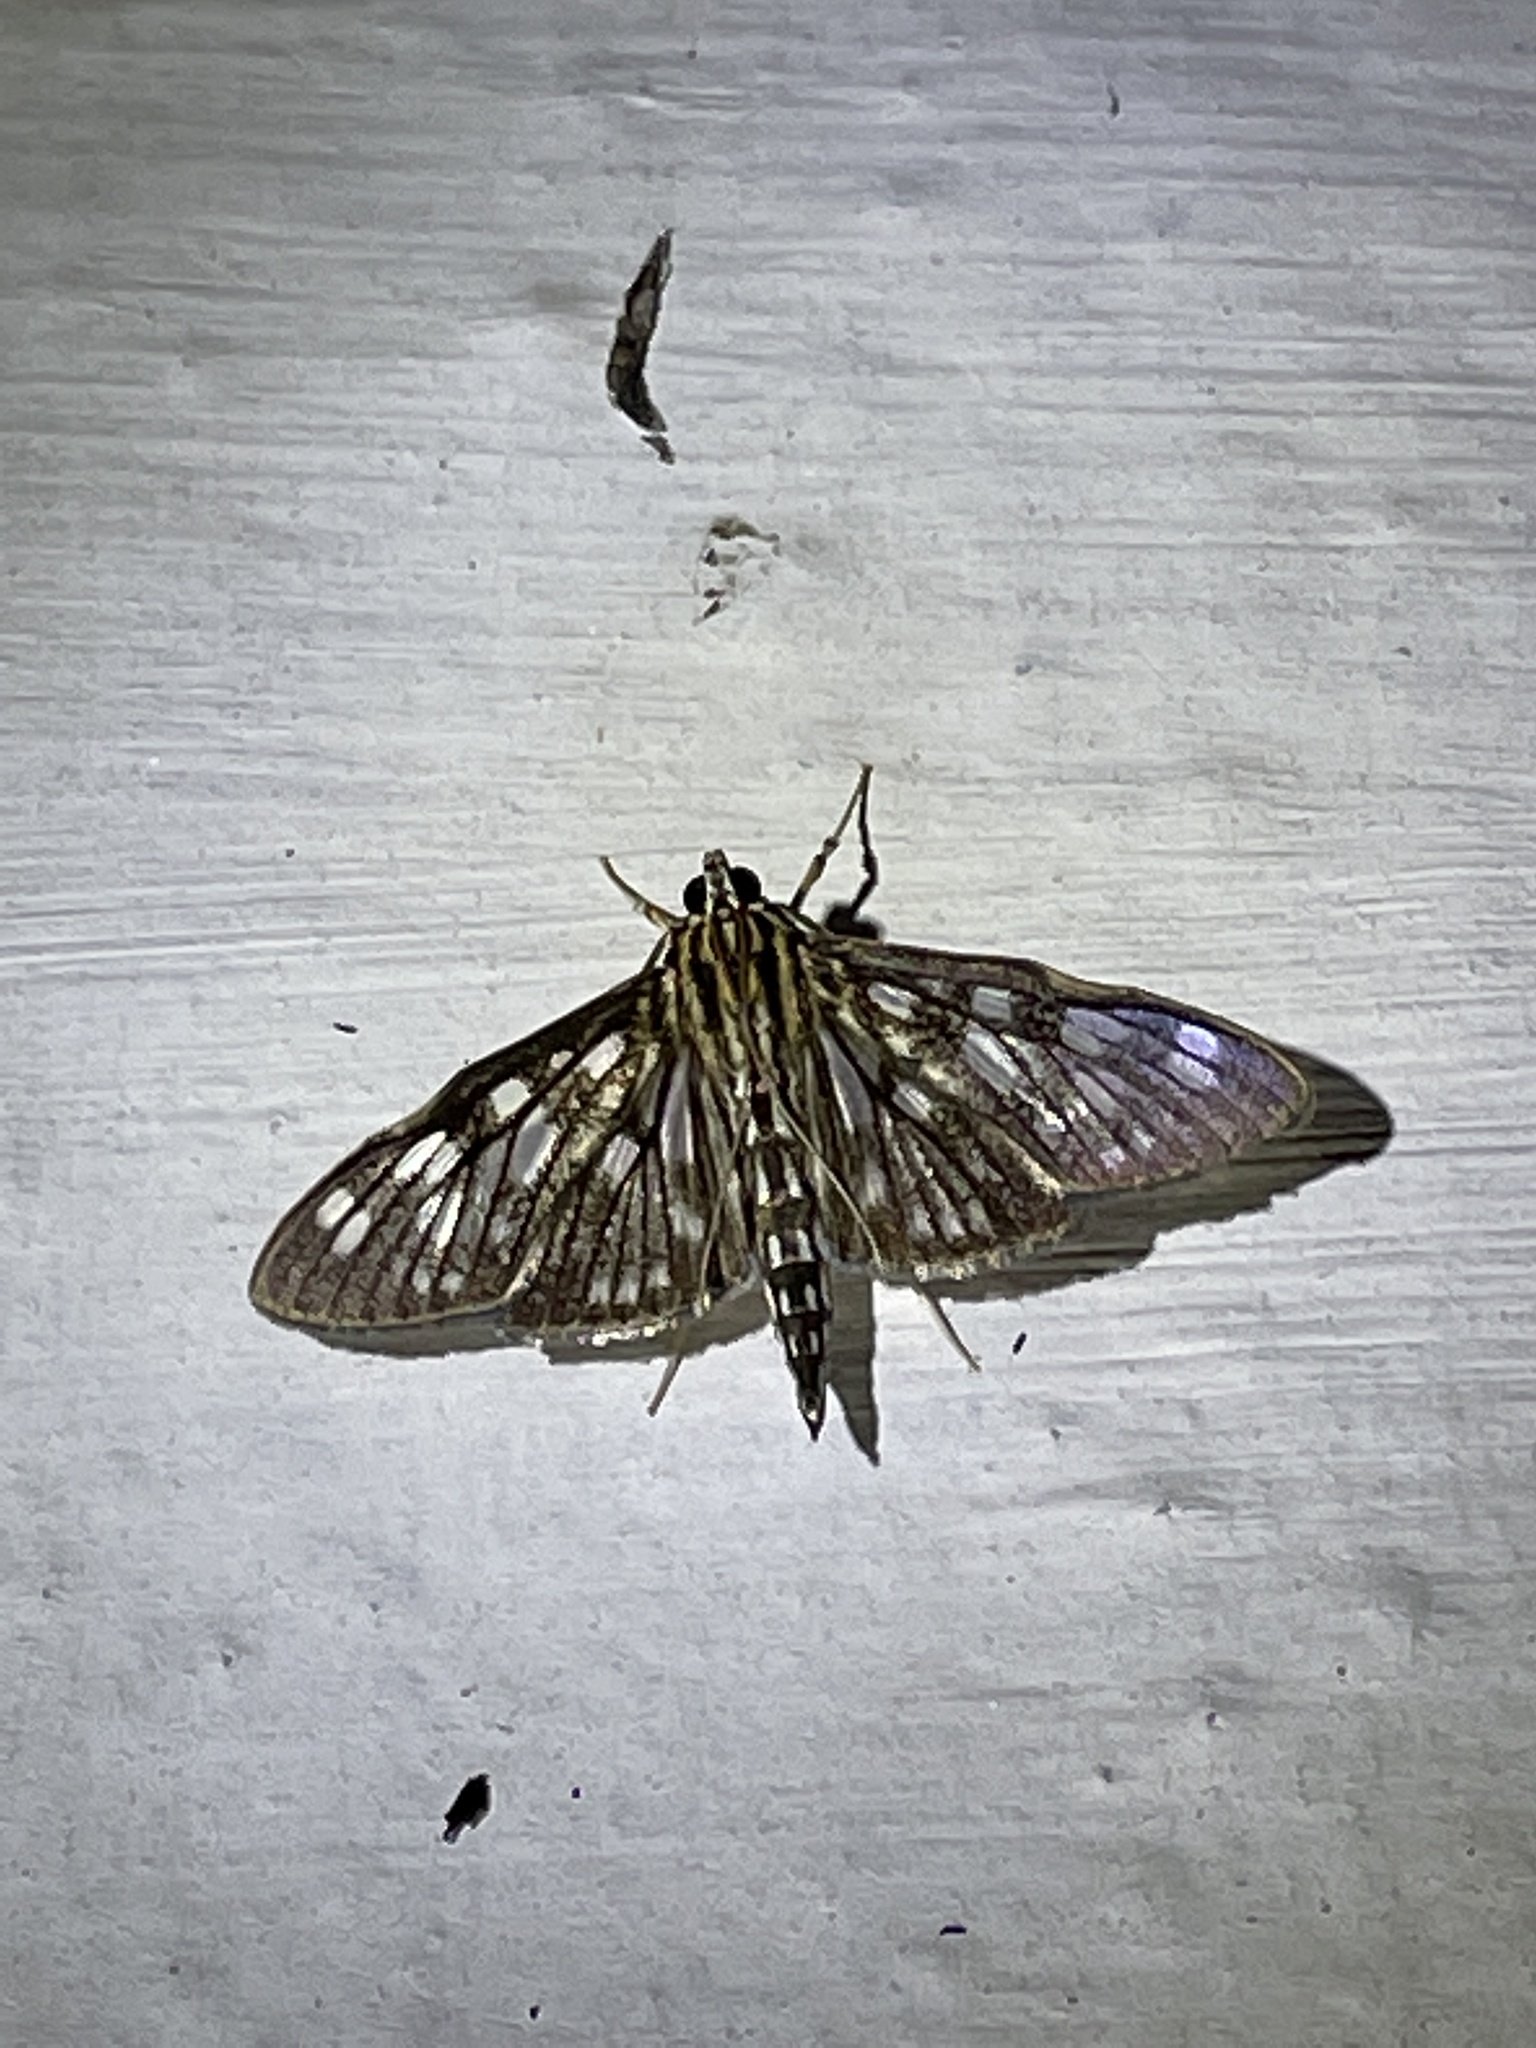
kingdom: Animalia
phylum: Arthropoda
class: Insecta
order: Lepidoptera
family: Crambidae
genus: Pygospila
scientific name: Pygospila costiflexalis
